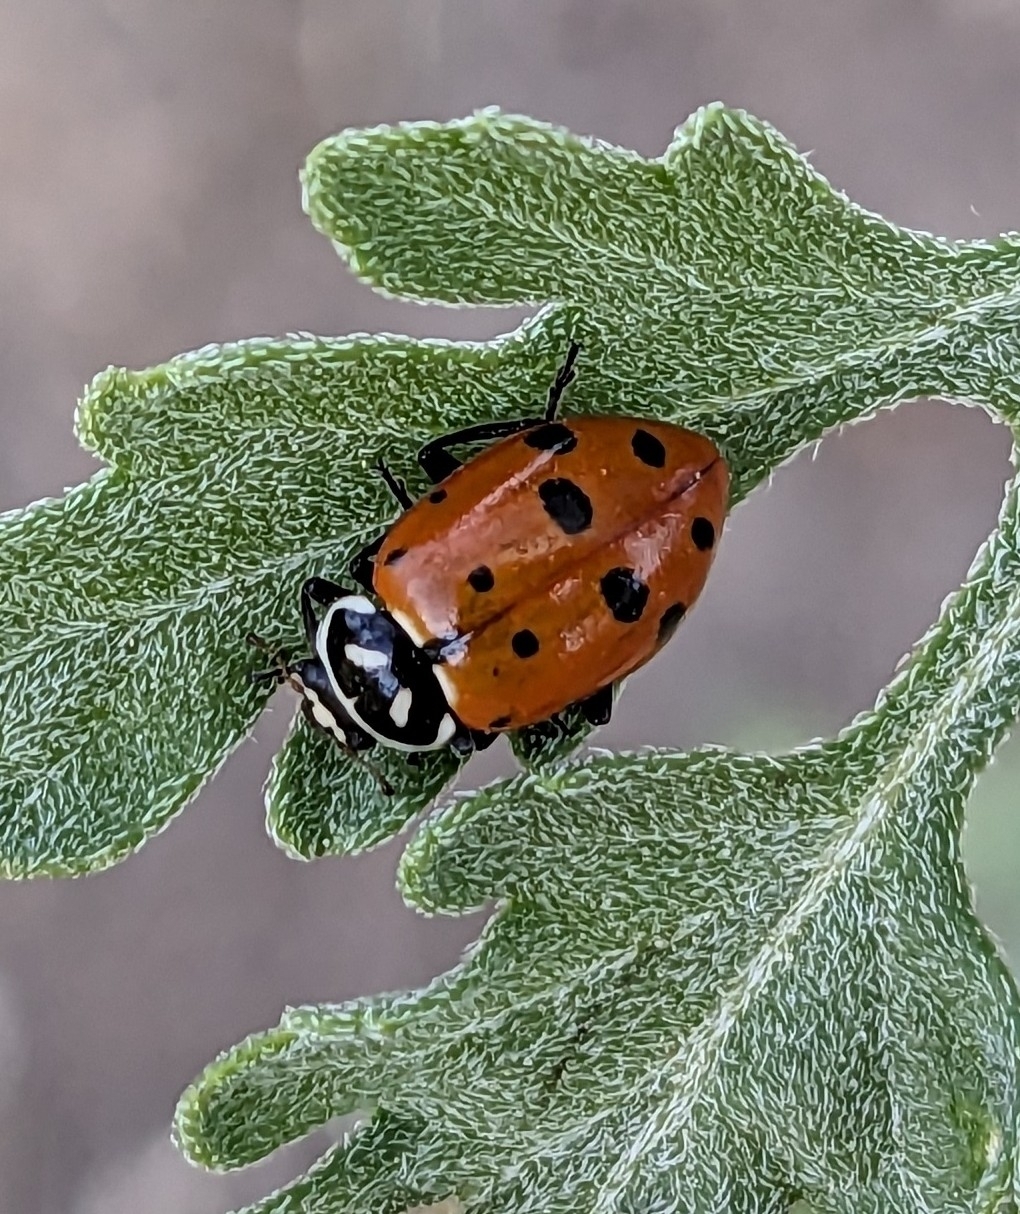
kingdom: Animalia
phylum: Arthropoda
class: Insecta
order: Coleoptera
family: Coccinellidae
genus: Hippodamia
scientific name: Hippodamia convergens
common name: Convergent lady beetle
